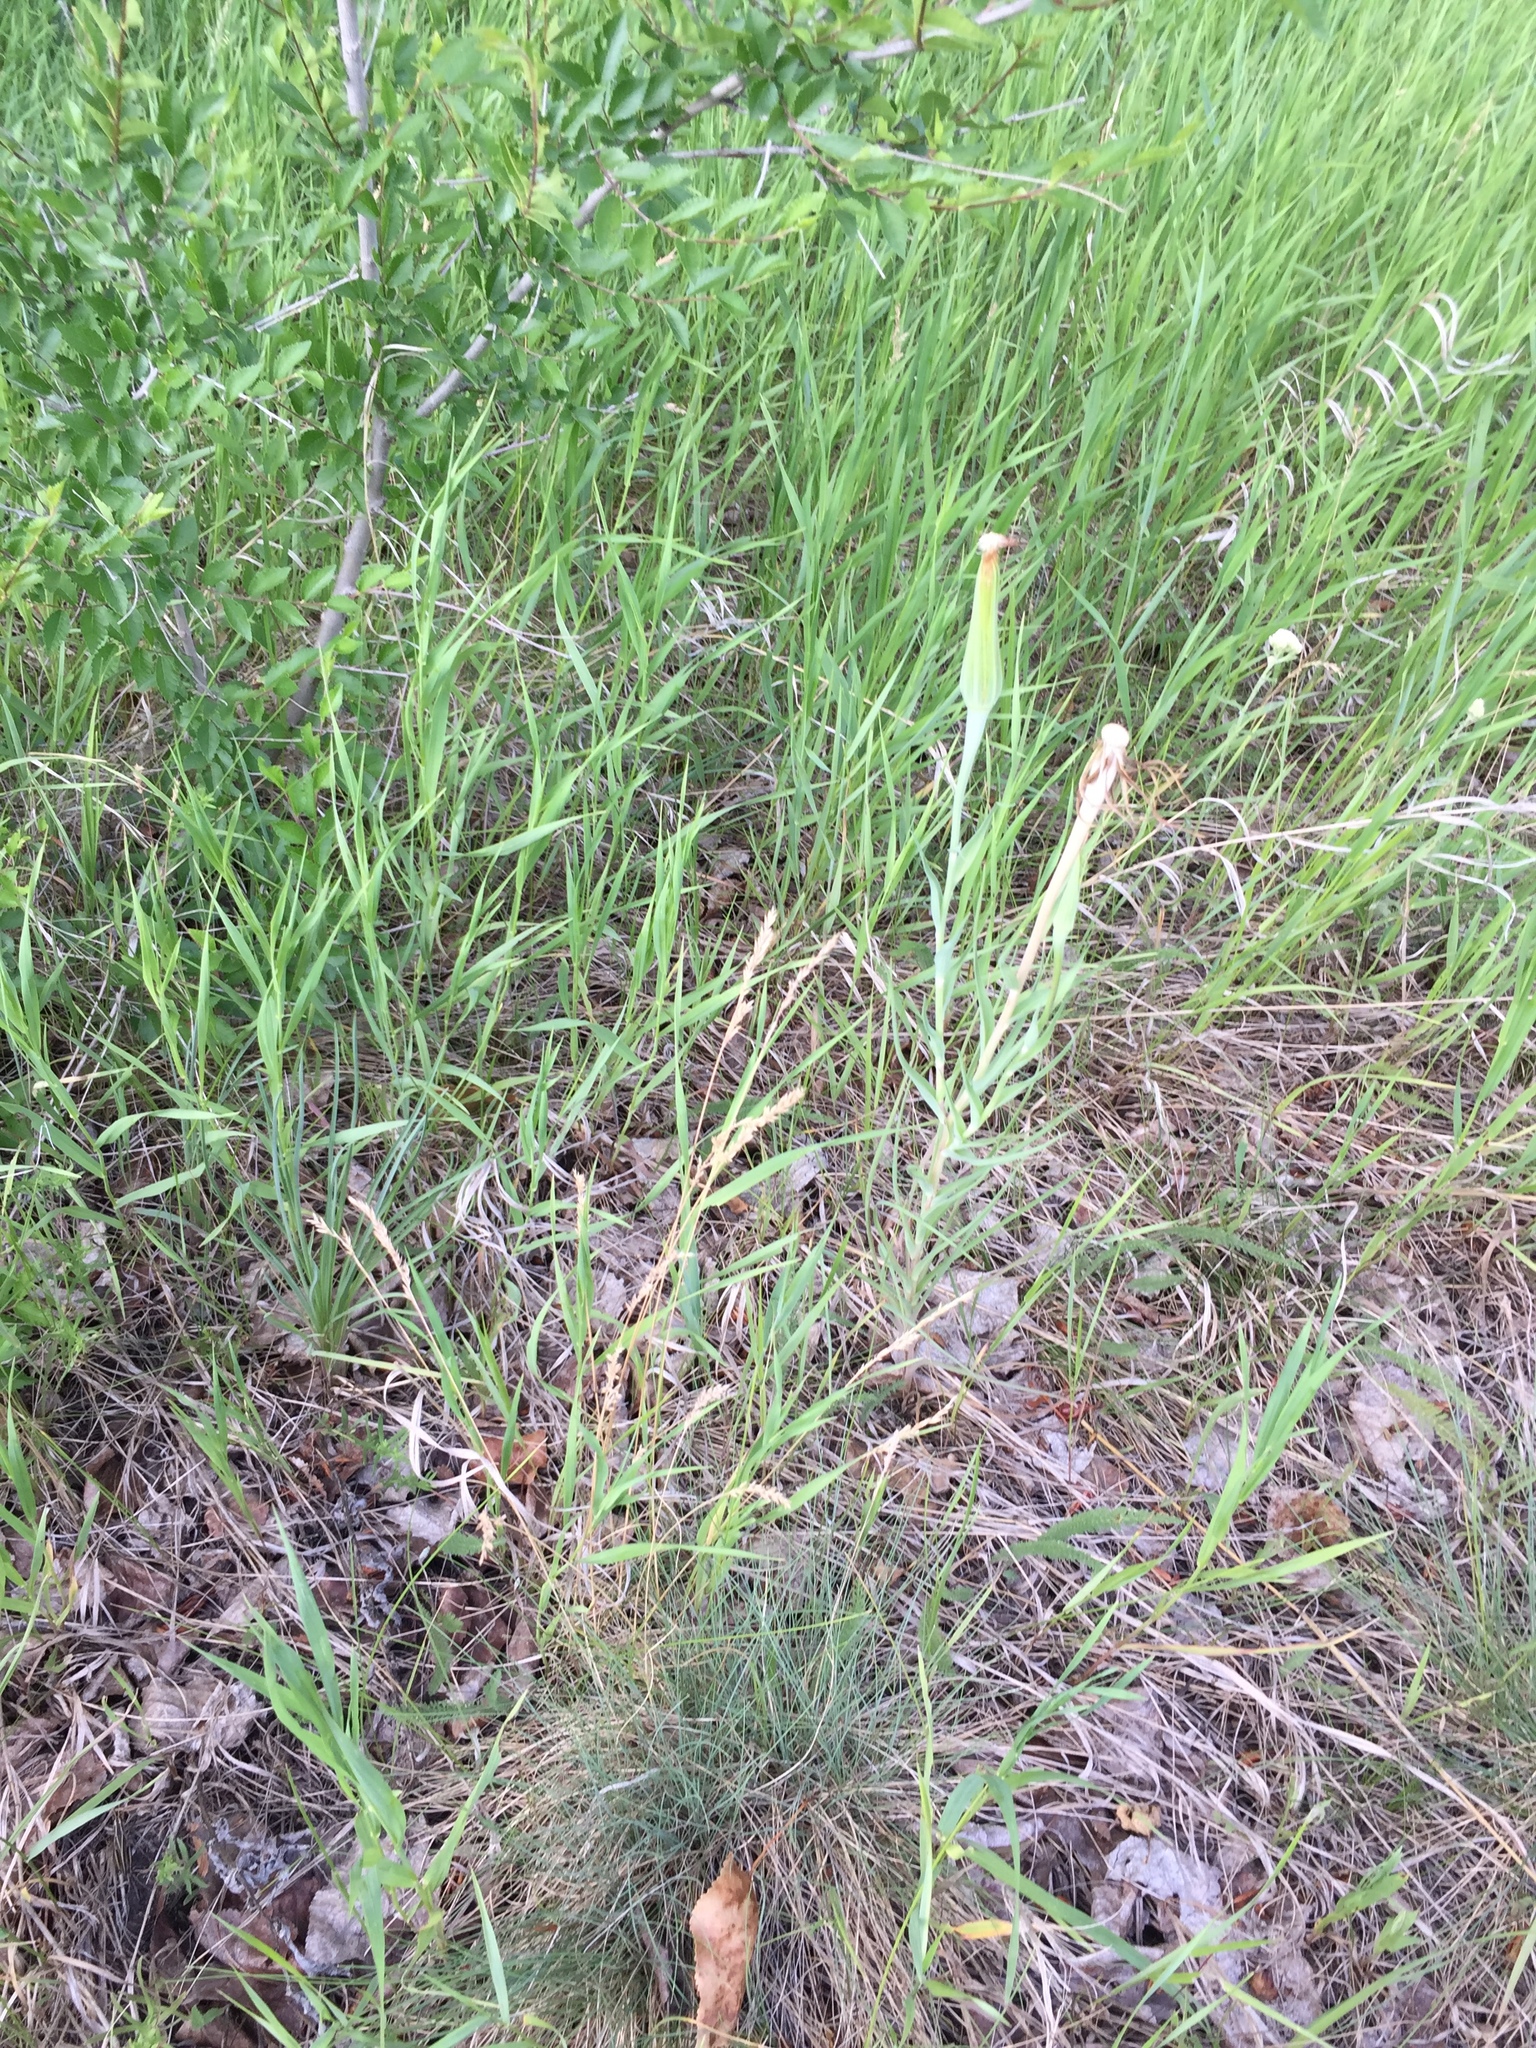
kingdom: Plantae
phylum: Tracheophyta
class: Magnoliopsida
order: Asterales
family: Asteraceae
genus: Tragopogon
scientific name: Tragopogon dubius
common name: Yellow salsify
